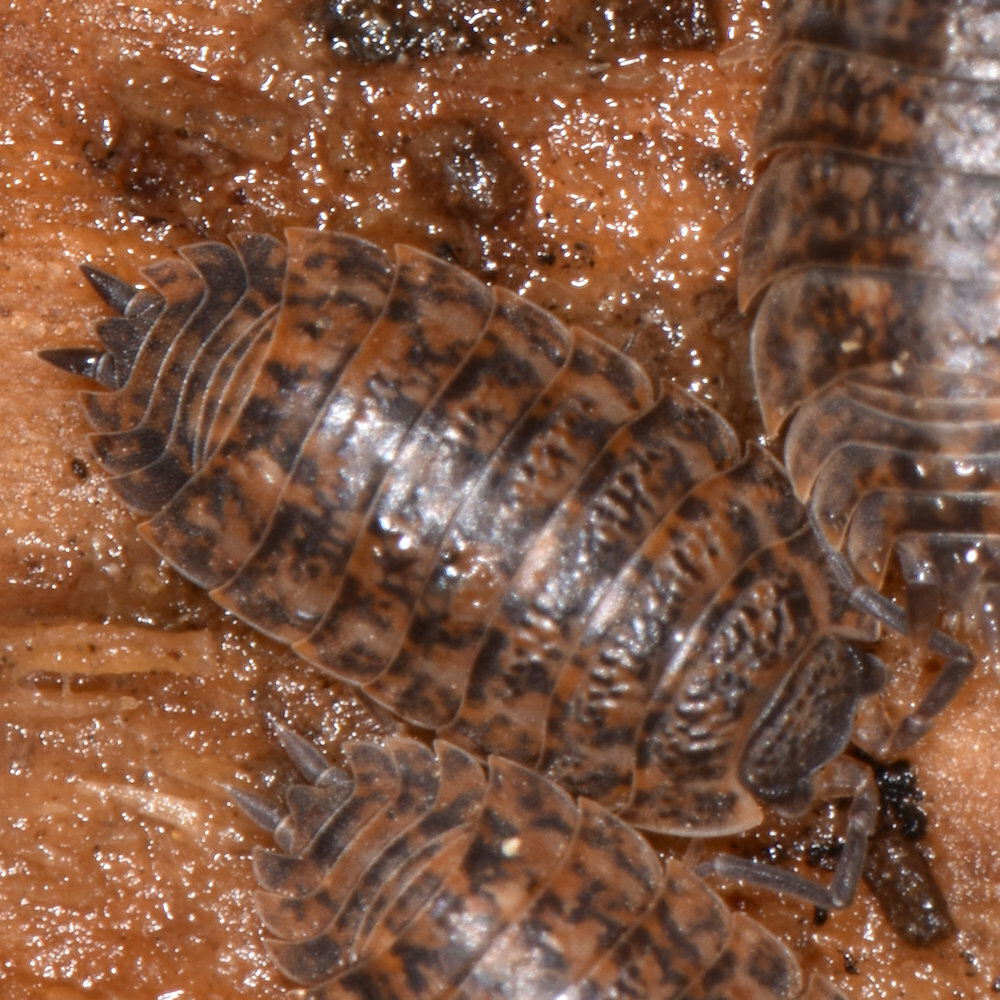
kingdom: Animalia
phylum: Arthropoda
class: Malacostraca
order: Isopoda
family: Trachelipodidae
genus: Trachelipus
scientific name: Trachelipus rathkii
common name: Isopod
